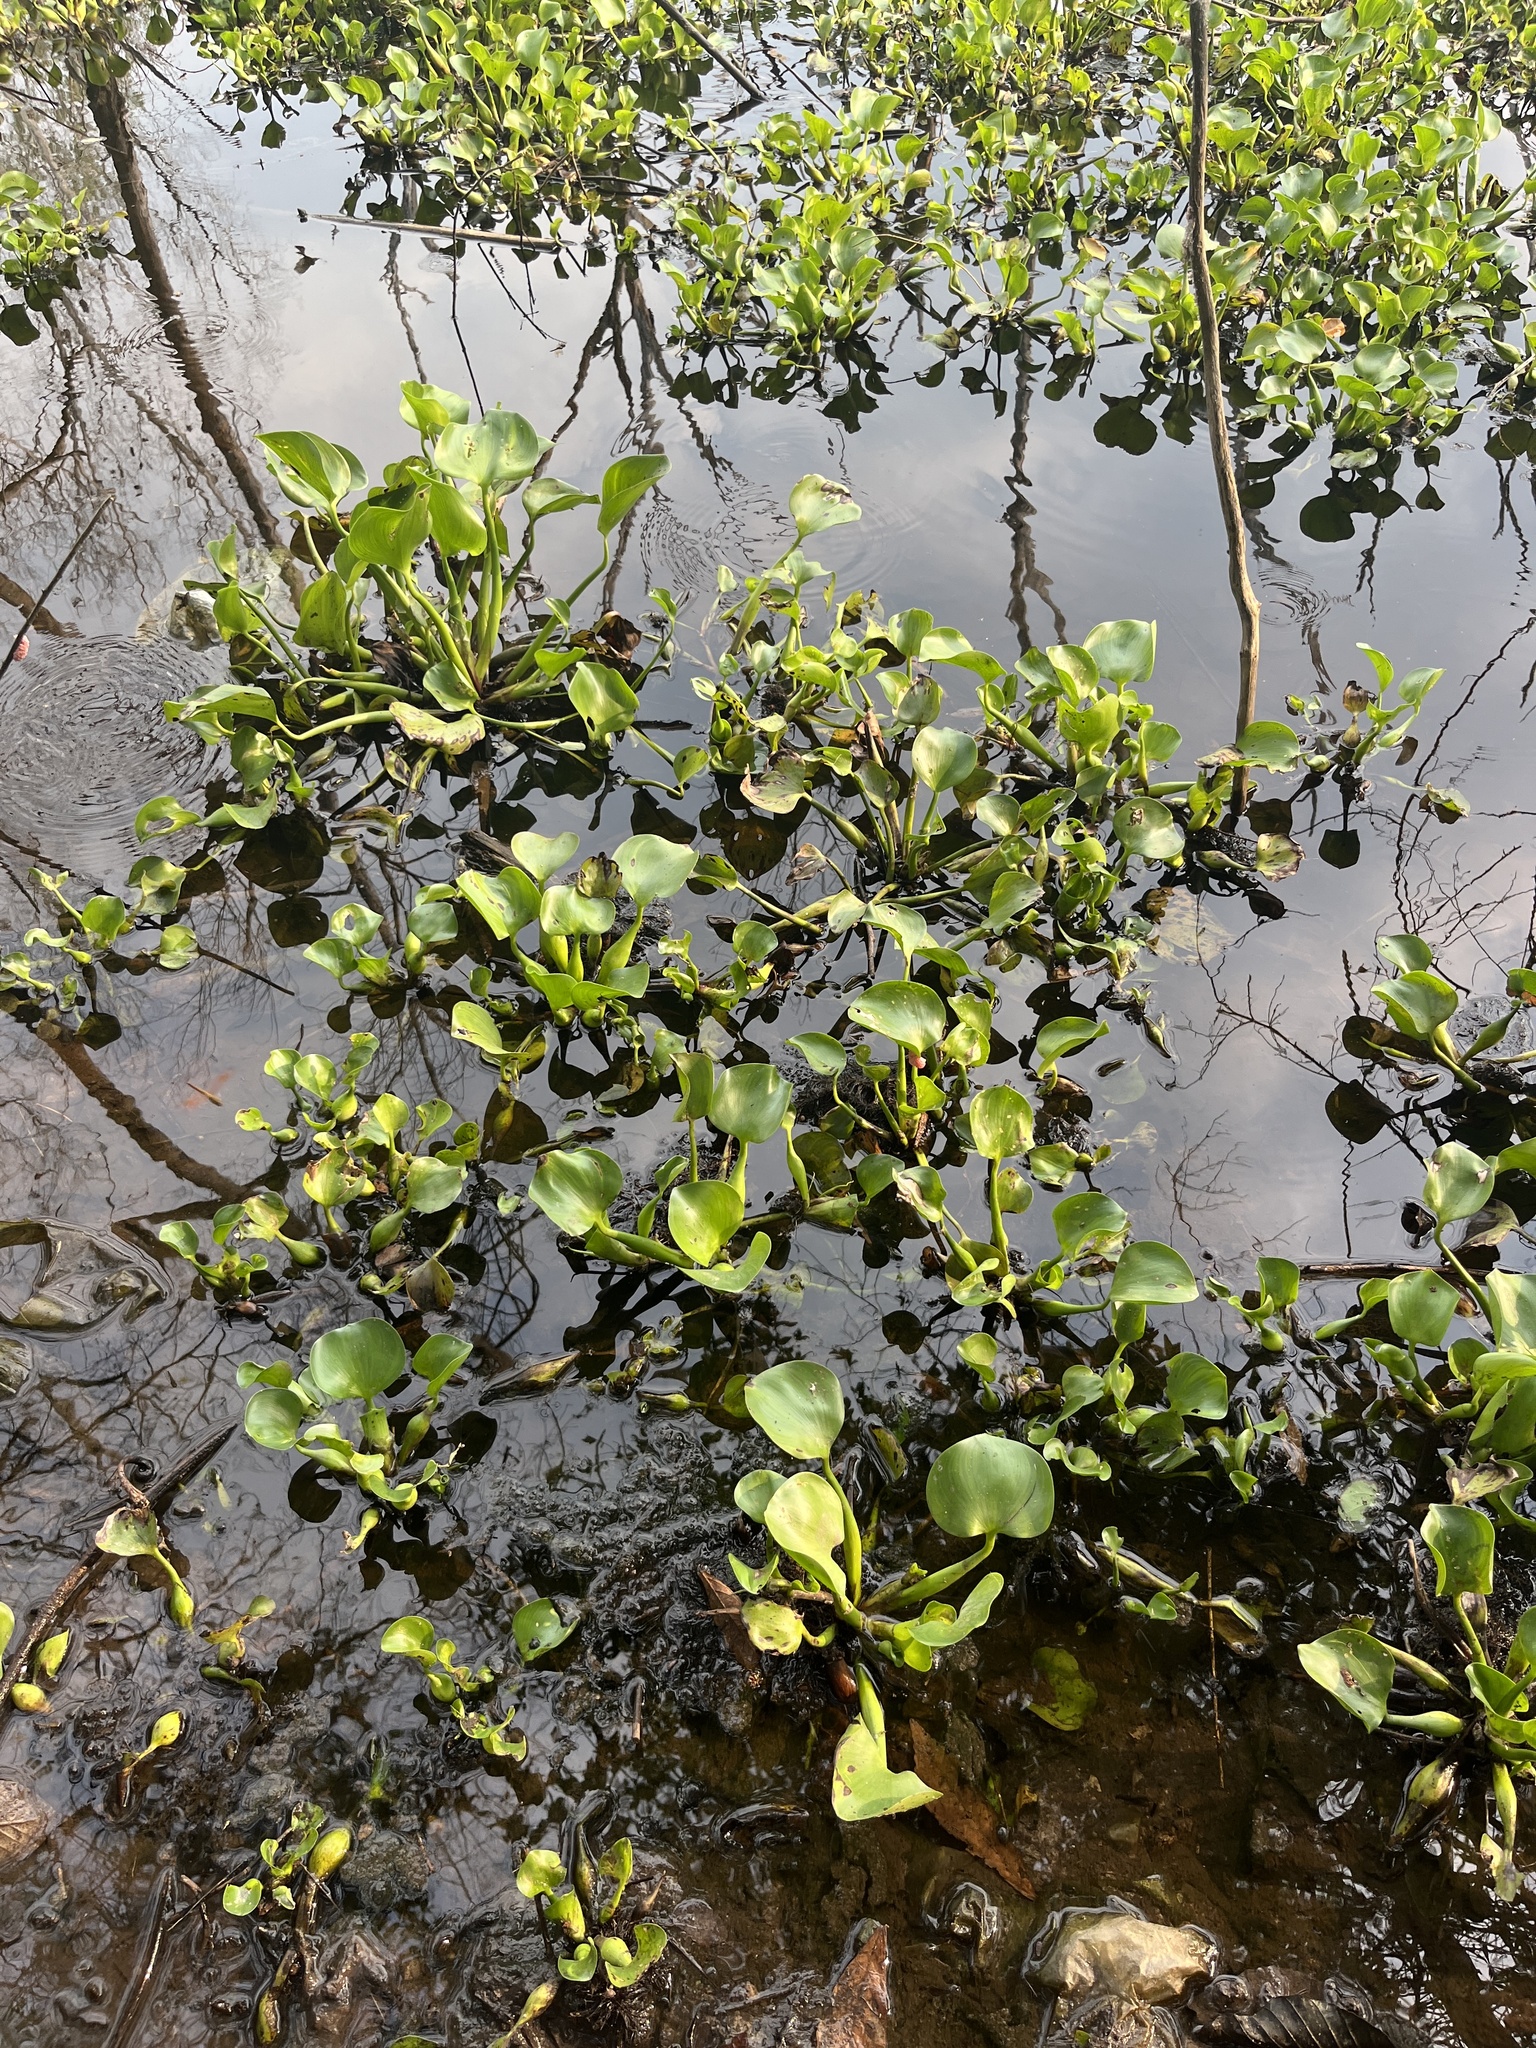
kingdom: Plantae
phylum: Tracheophyta
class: Liliopsida
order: Commelinales
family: Pontederiaceae
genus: Pontederia
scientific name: Pontederia crassipes
